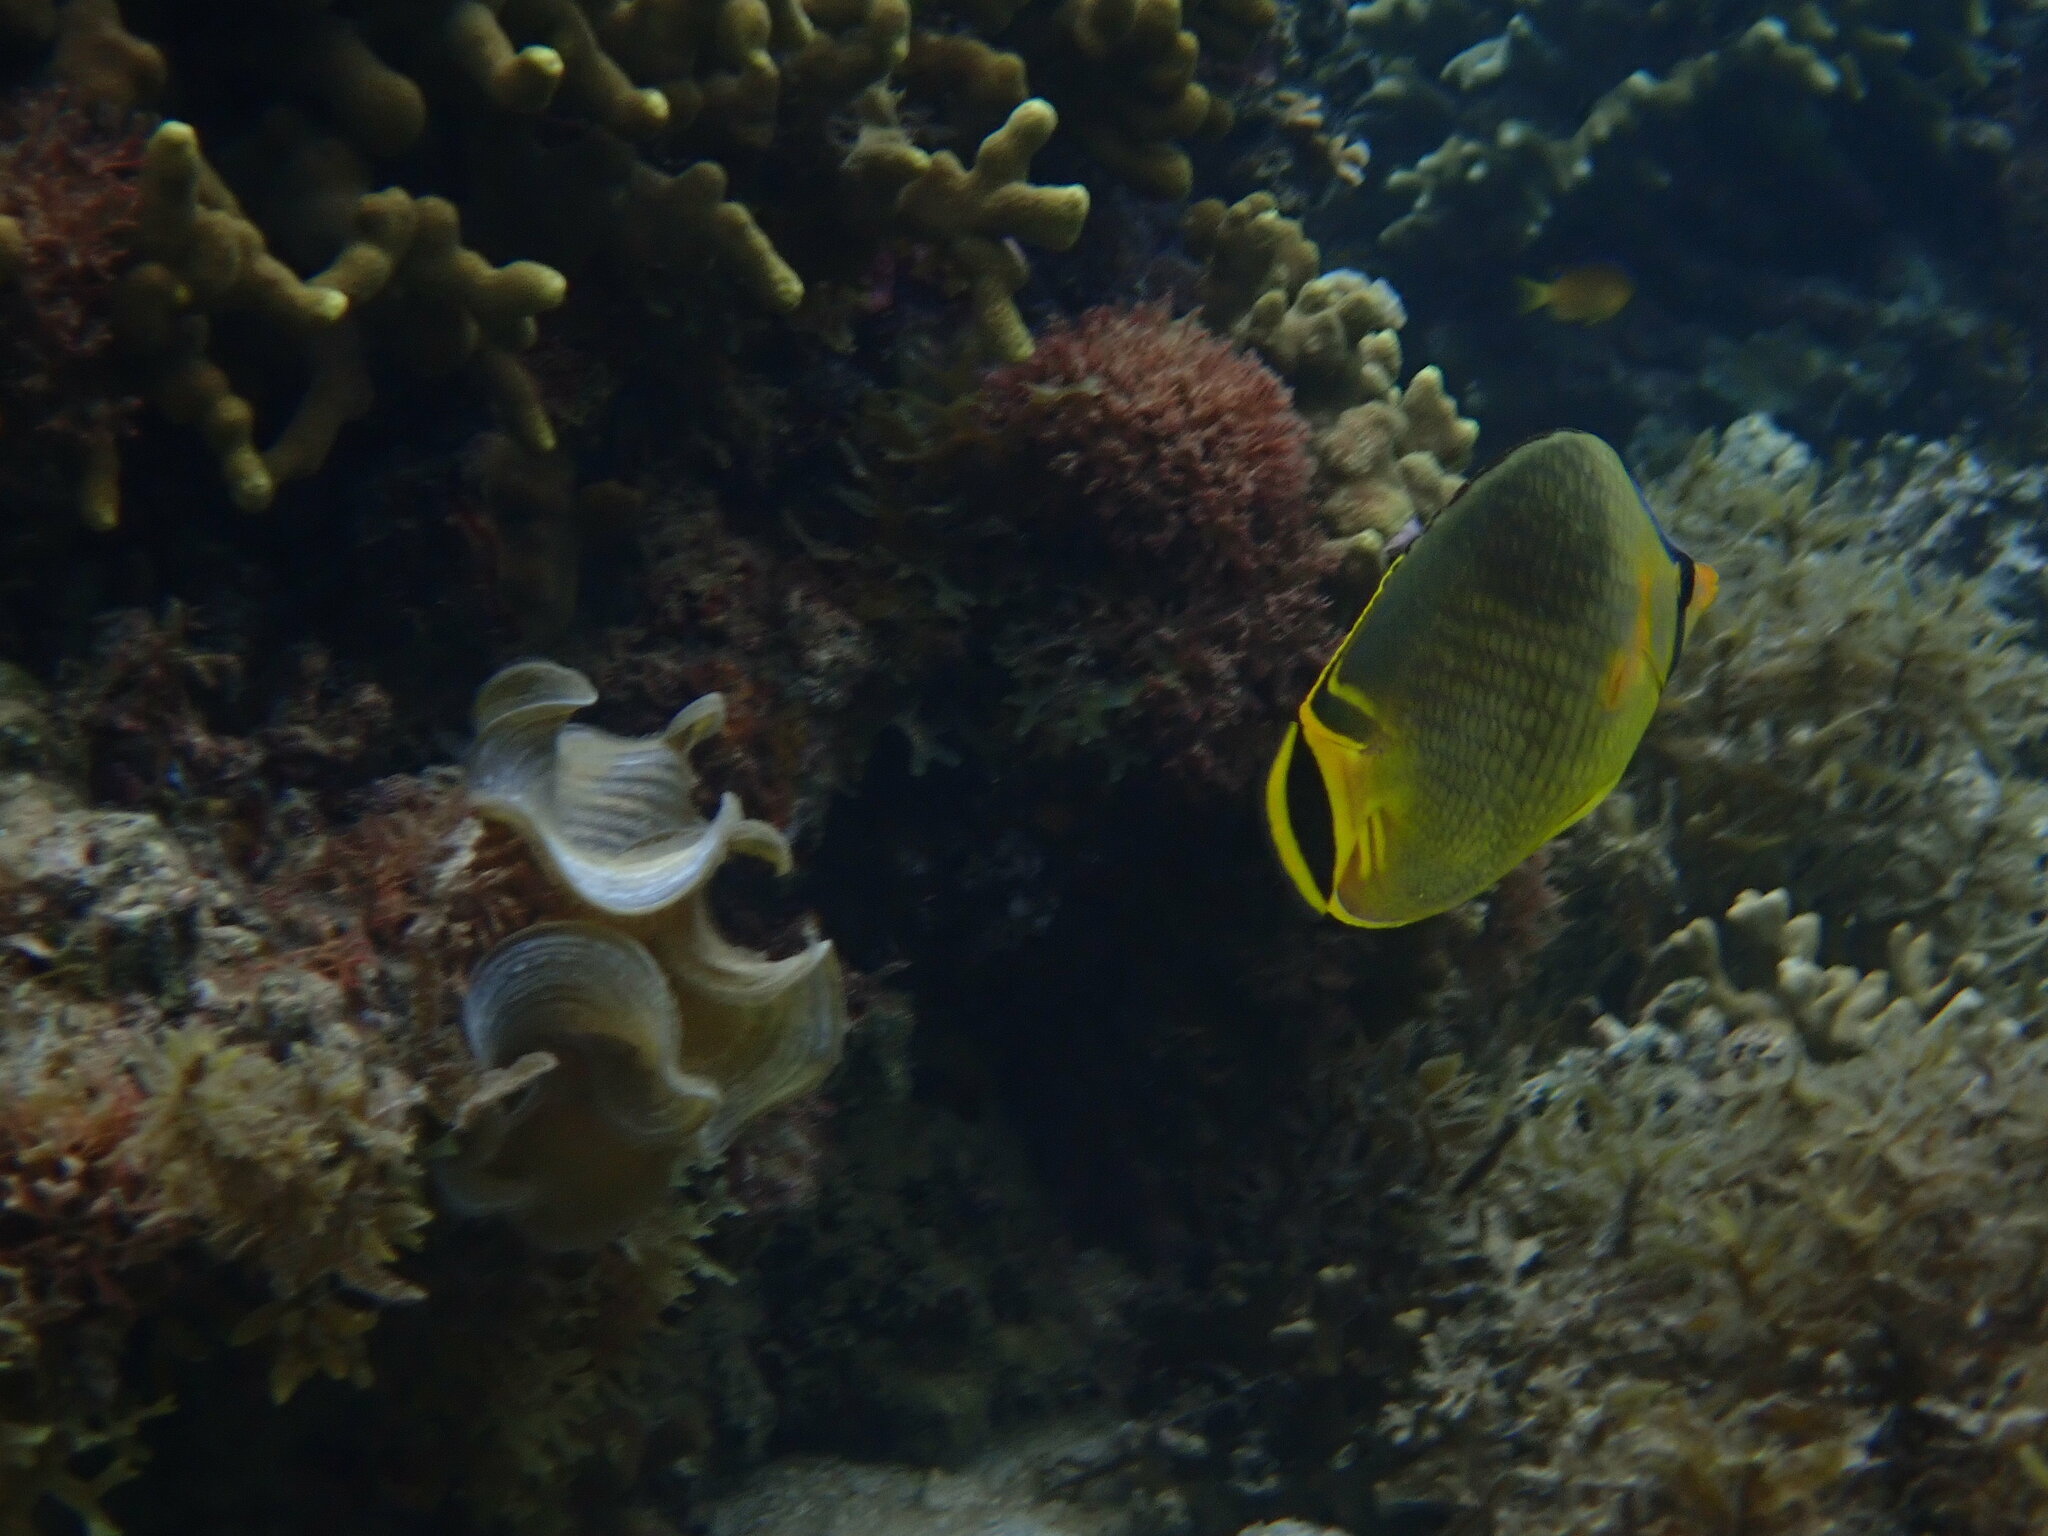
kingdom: Animalia
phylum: Chordata
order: Perciformes
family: Chaetodontidae
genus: Chaetodon
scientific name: Chaetodon rafflesii
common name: Latticed butterflyfish
